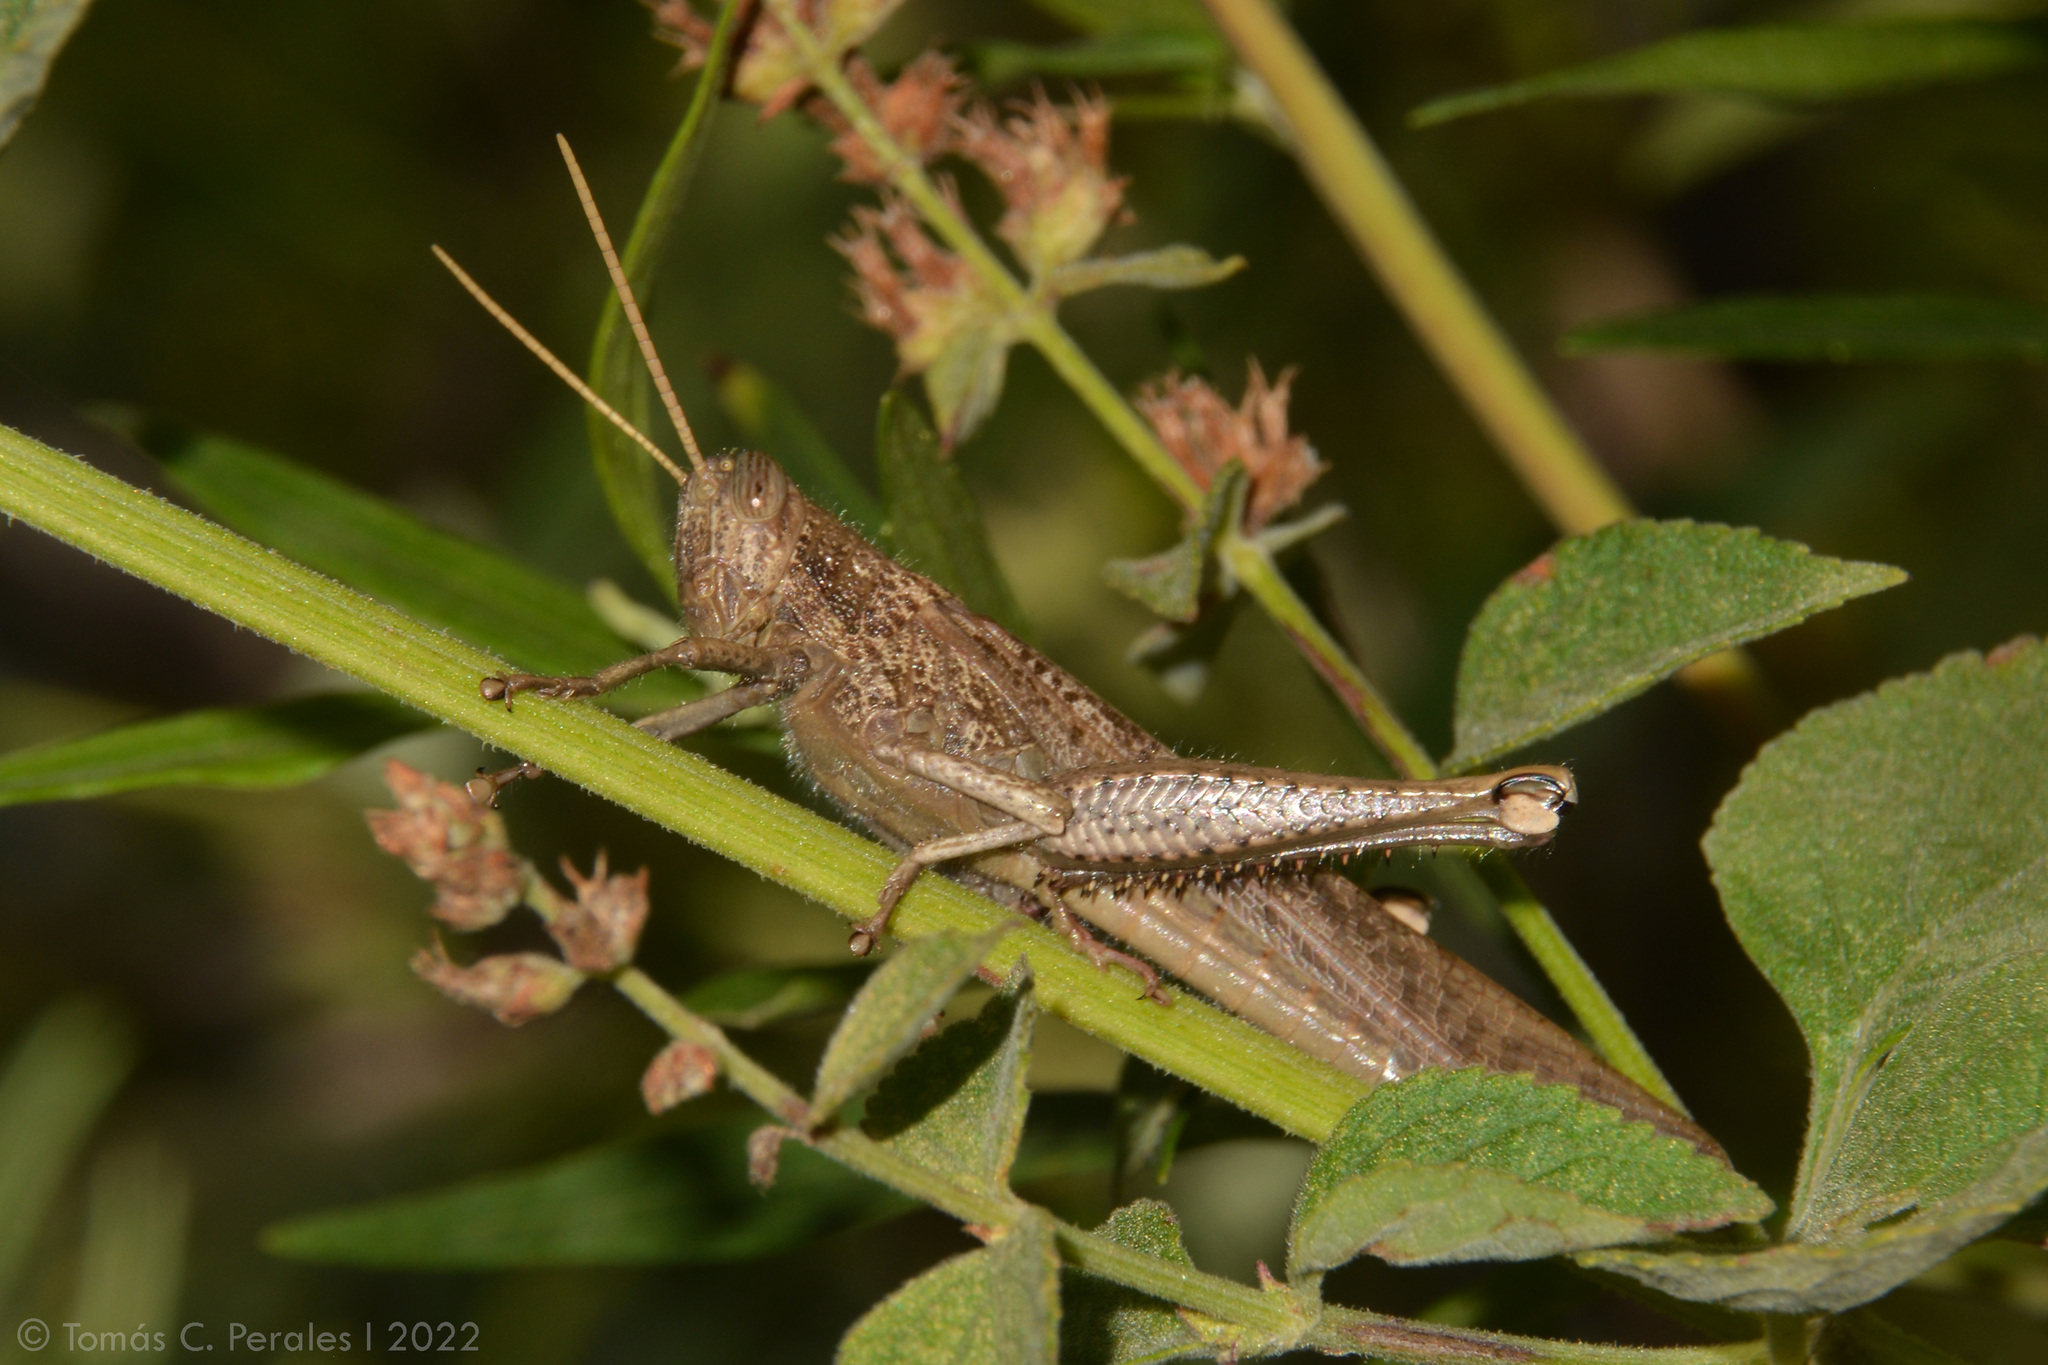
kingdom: Animalia
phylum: Arthropoda
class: Insecta
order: Orthoptera
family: Acrididae
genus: Schistocerca
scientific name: Schistocerca nitens
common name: Vagrant grasshopper
